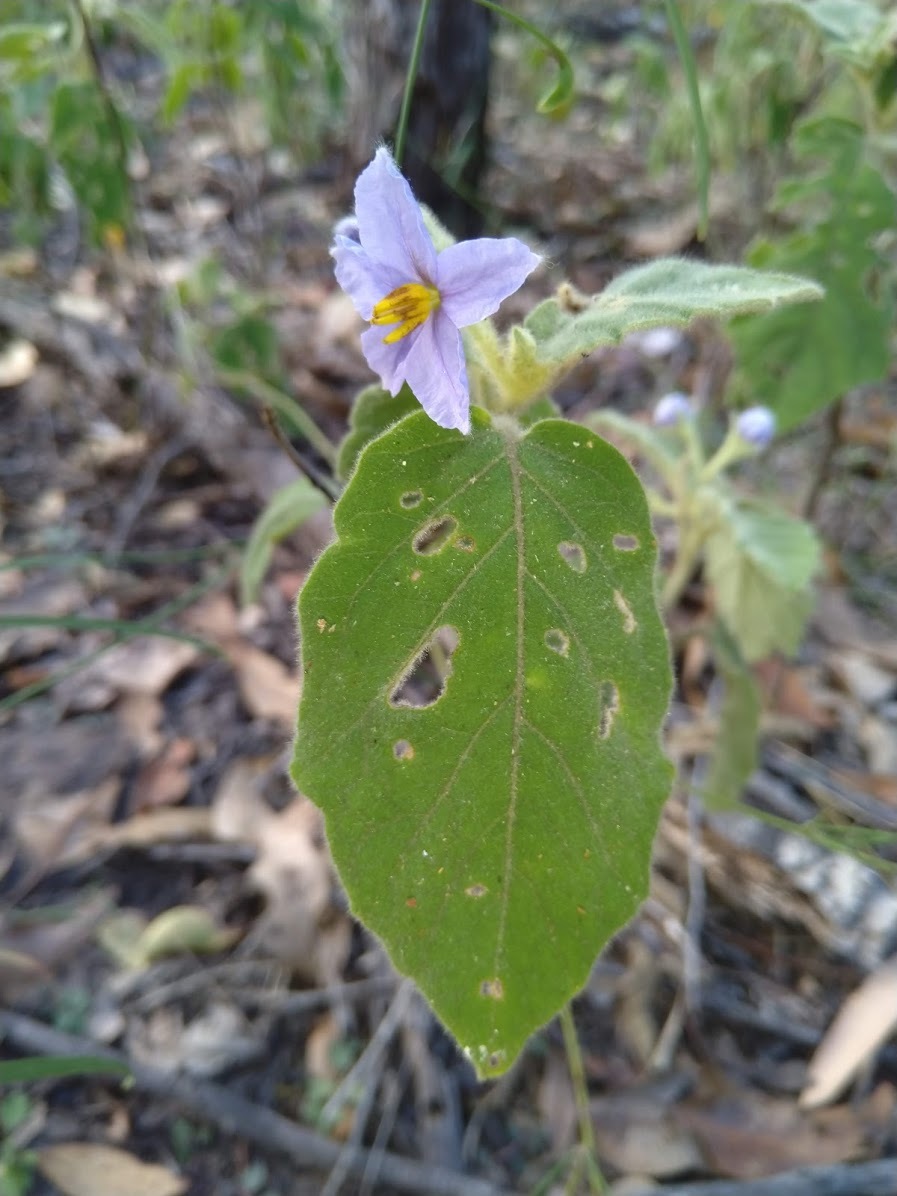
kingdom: Plantae
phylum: Tracheophyta
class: Magnoliopsida
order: Solanales
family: Solanaceae
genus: Solanum
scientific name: Solanum gympiense
